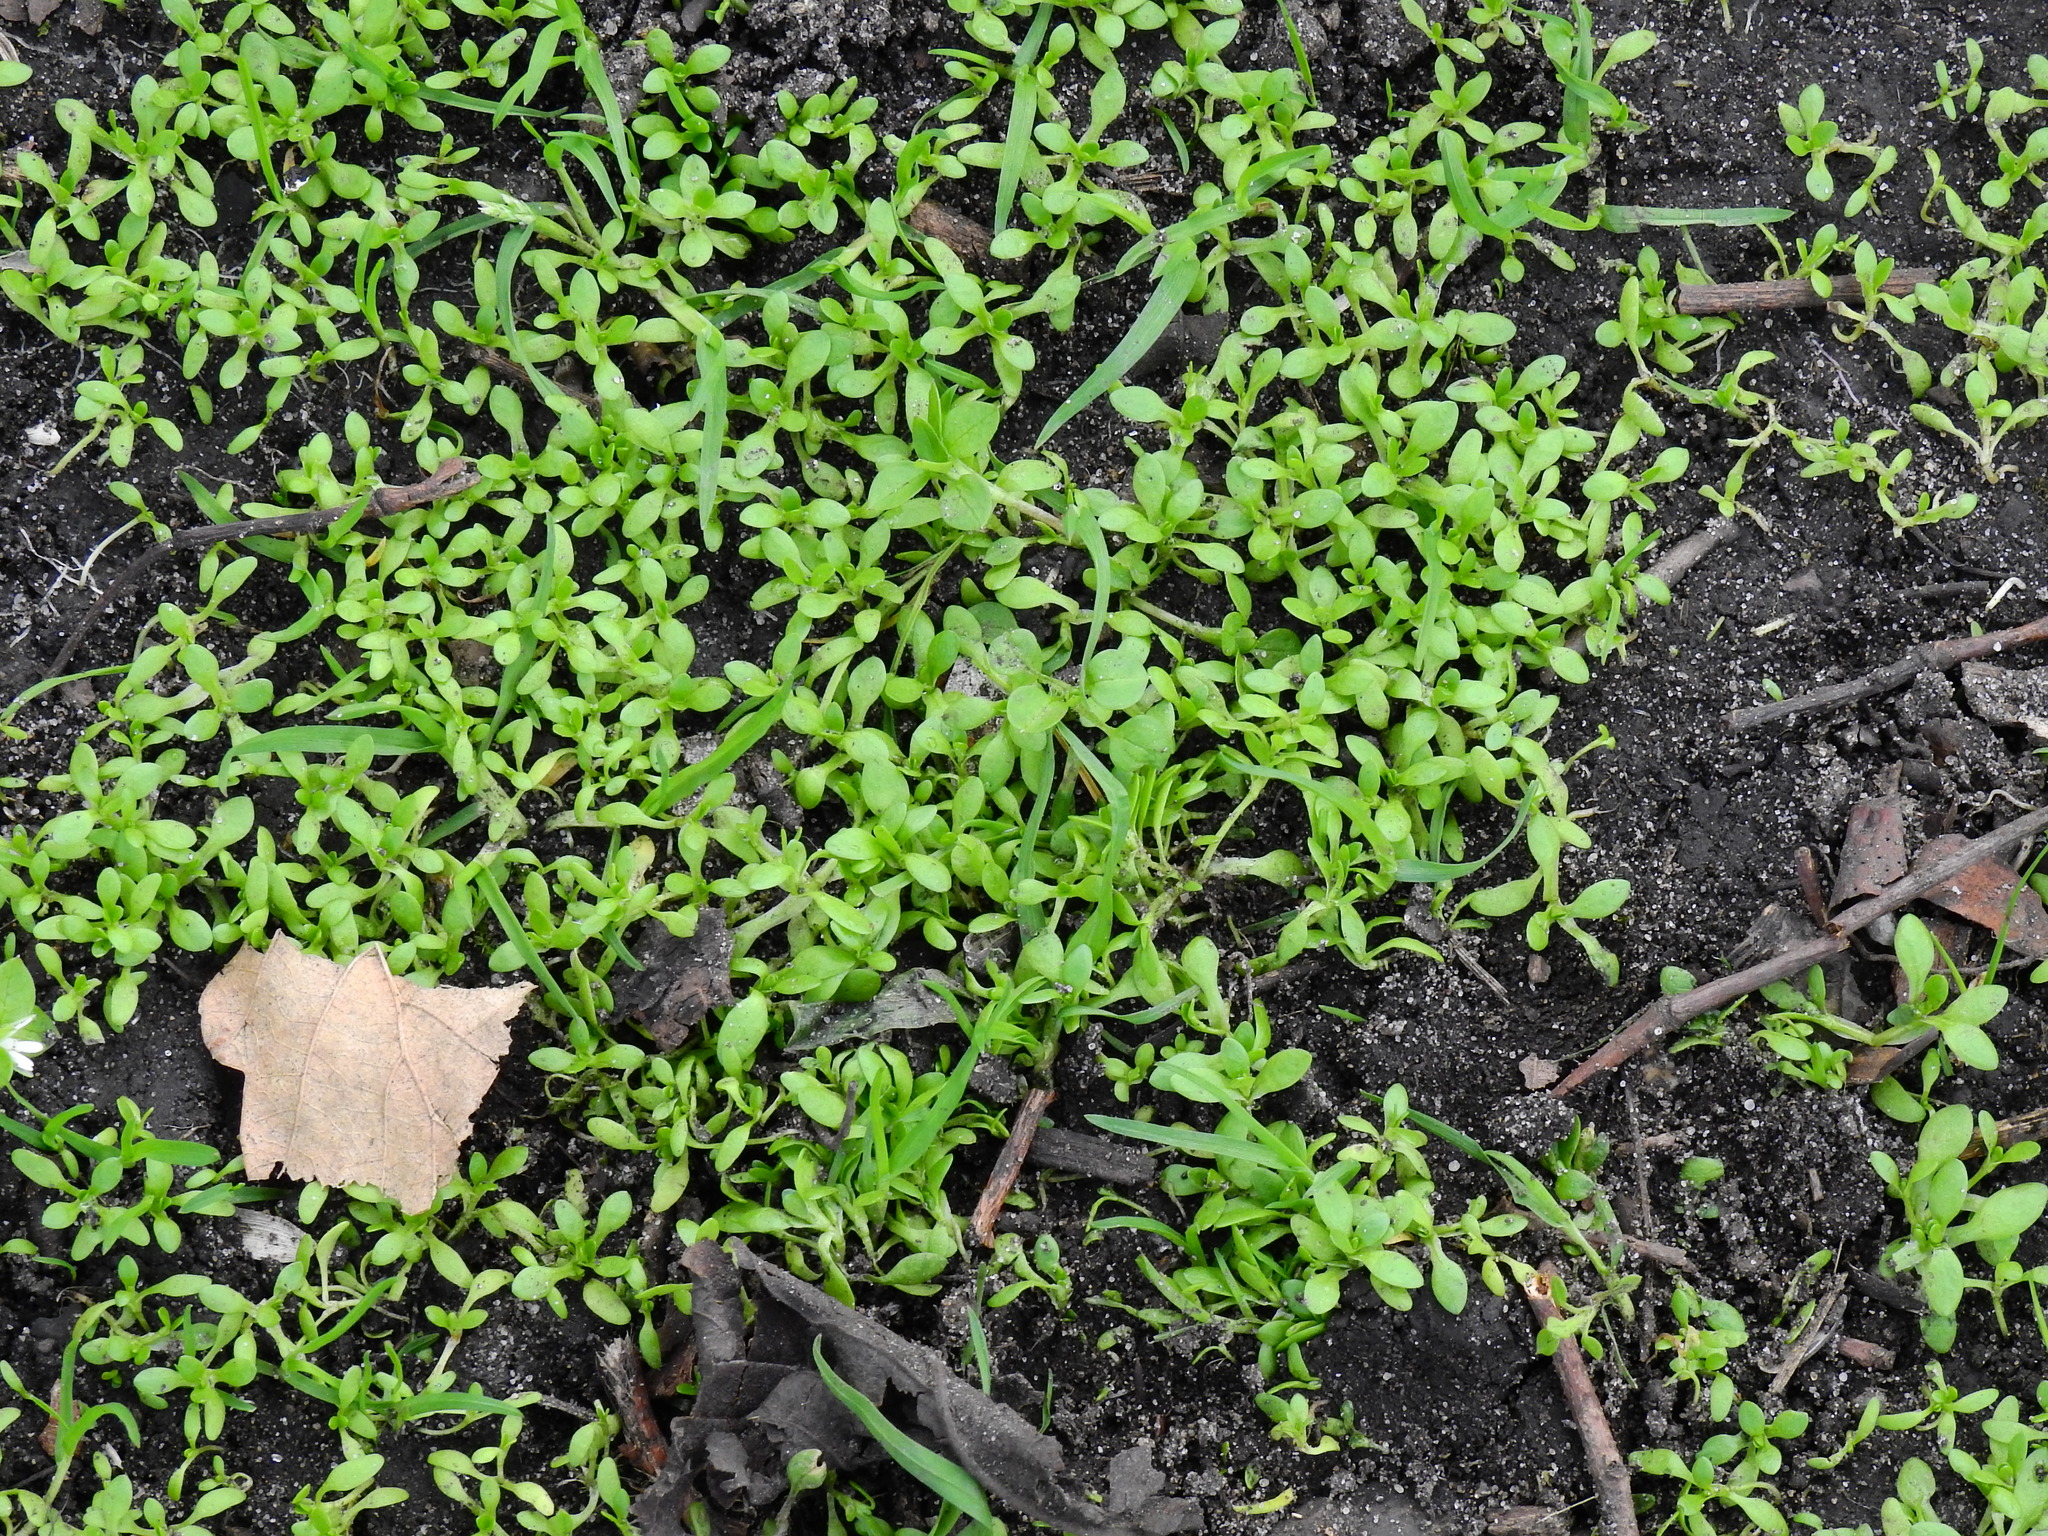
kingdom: Plantae
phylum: Tracheophyta
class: Magnoliopsida
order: Caryophyllales
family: Montiaceae
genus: Montia
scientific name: Montia fontana
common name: Blinks
